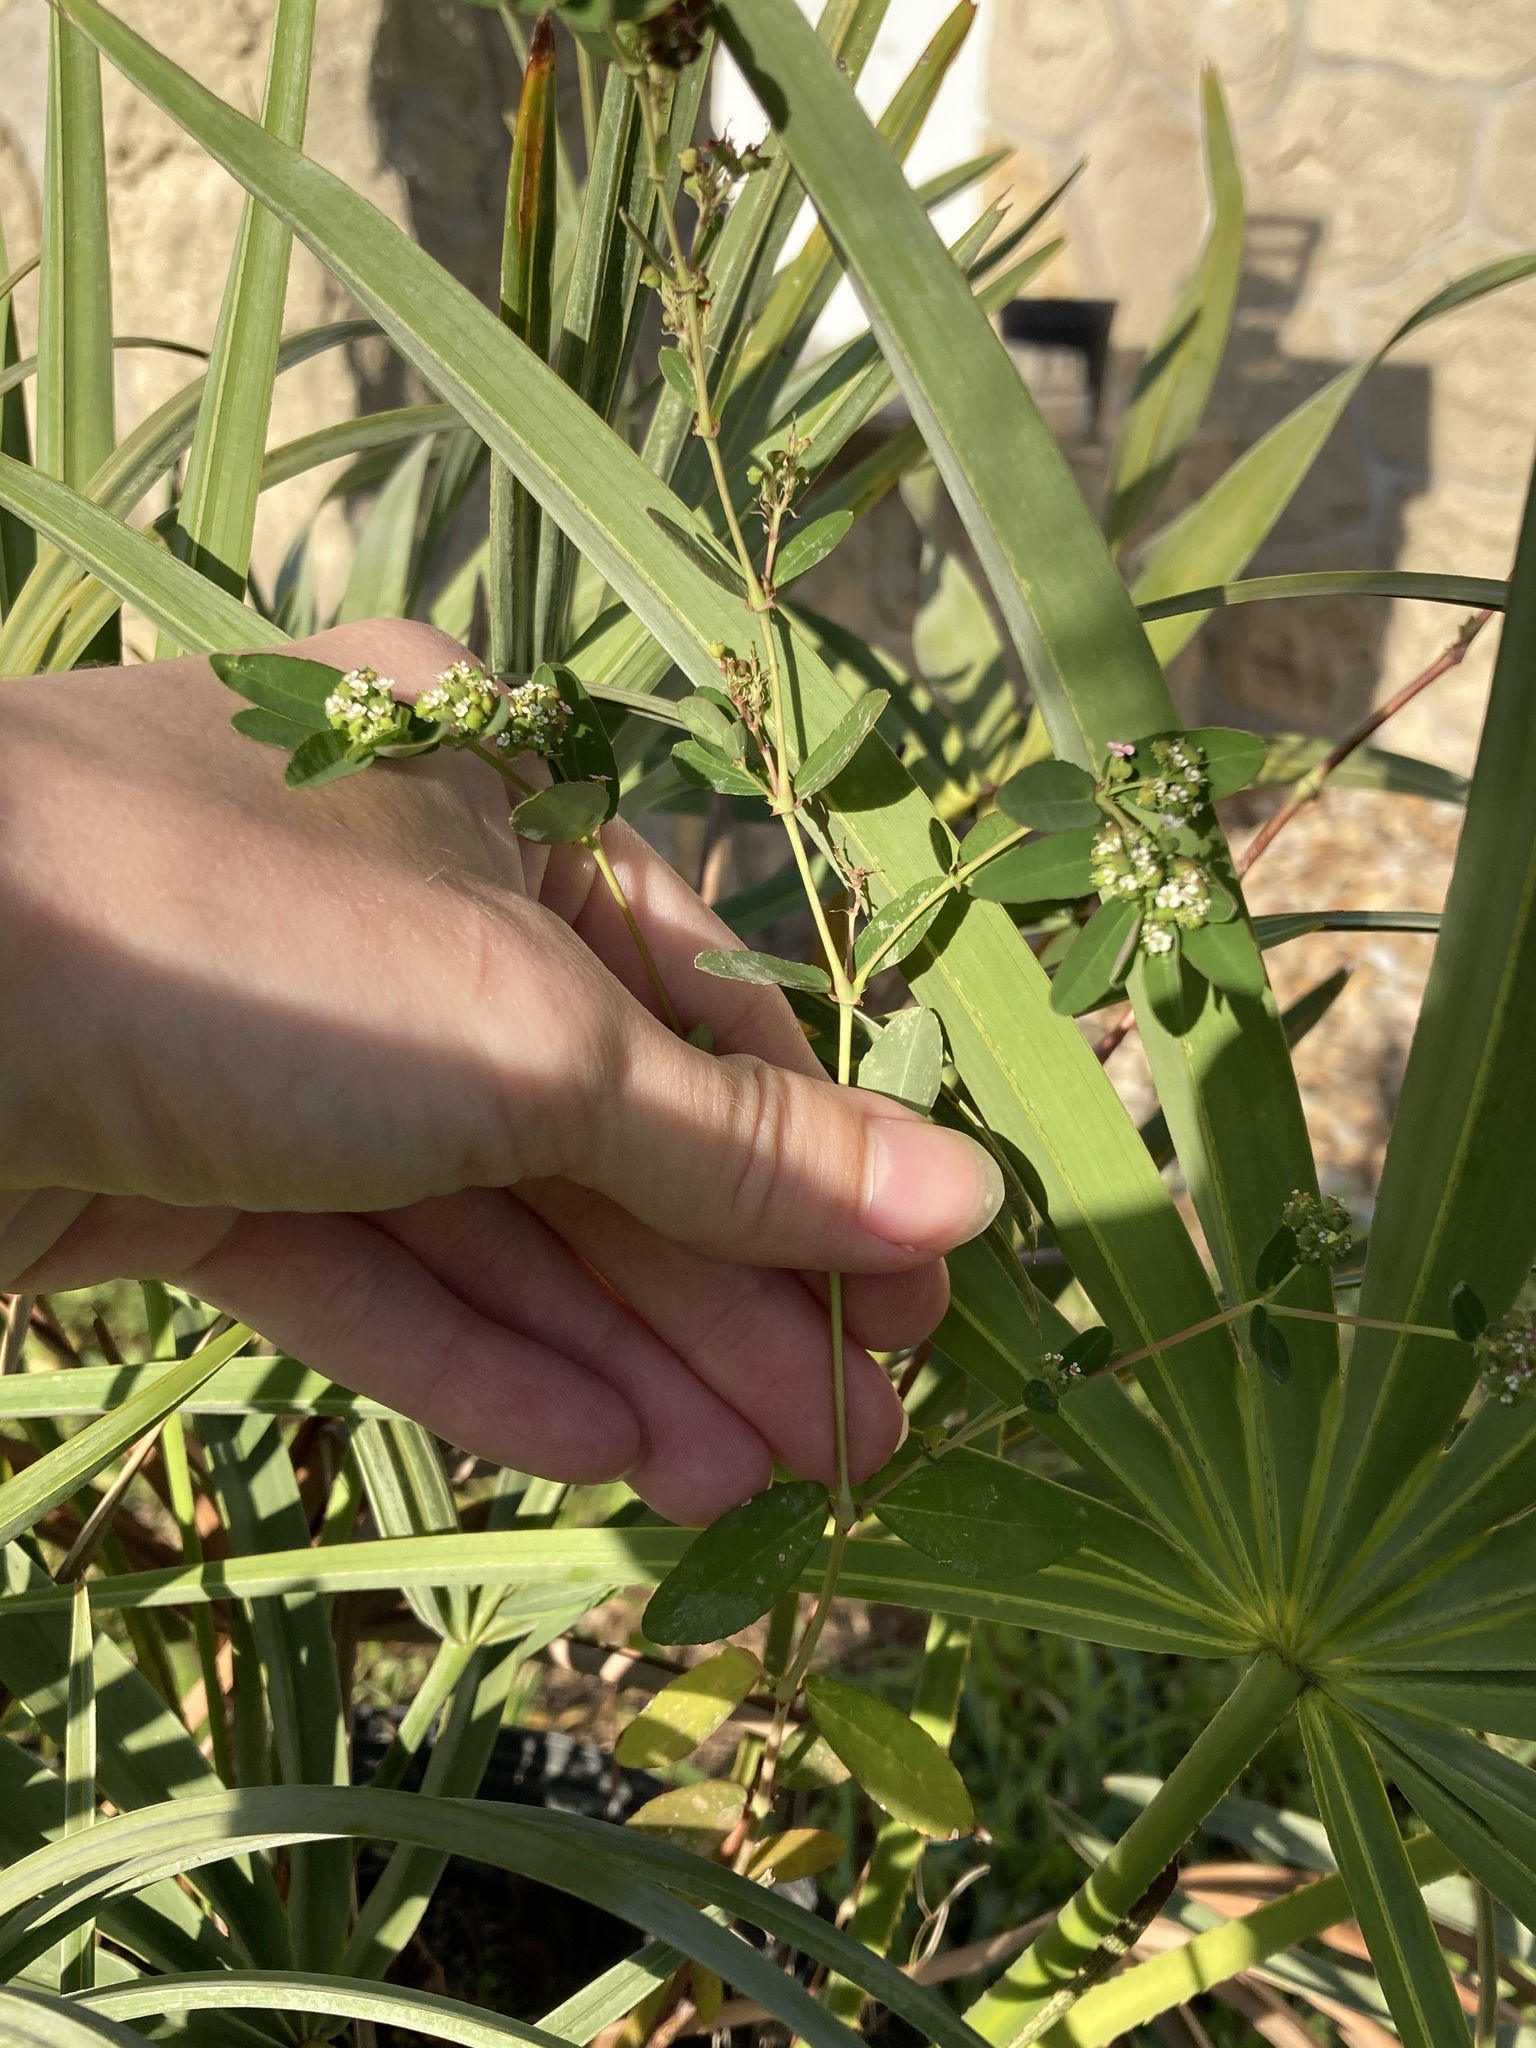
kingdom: Plantae
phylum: Tracheophyta
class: Magnoliopsida
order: Malpighiales
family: Euphorbiaceae
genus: Euphorbia
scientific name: Euphorbia hypericifolia
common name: Graceful sandmat
